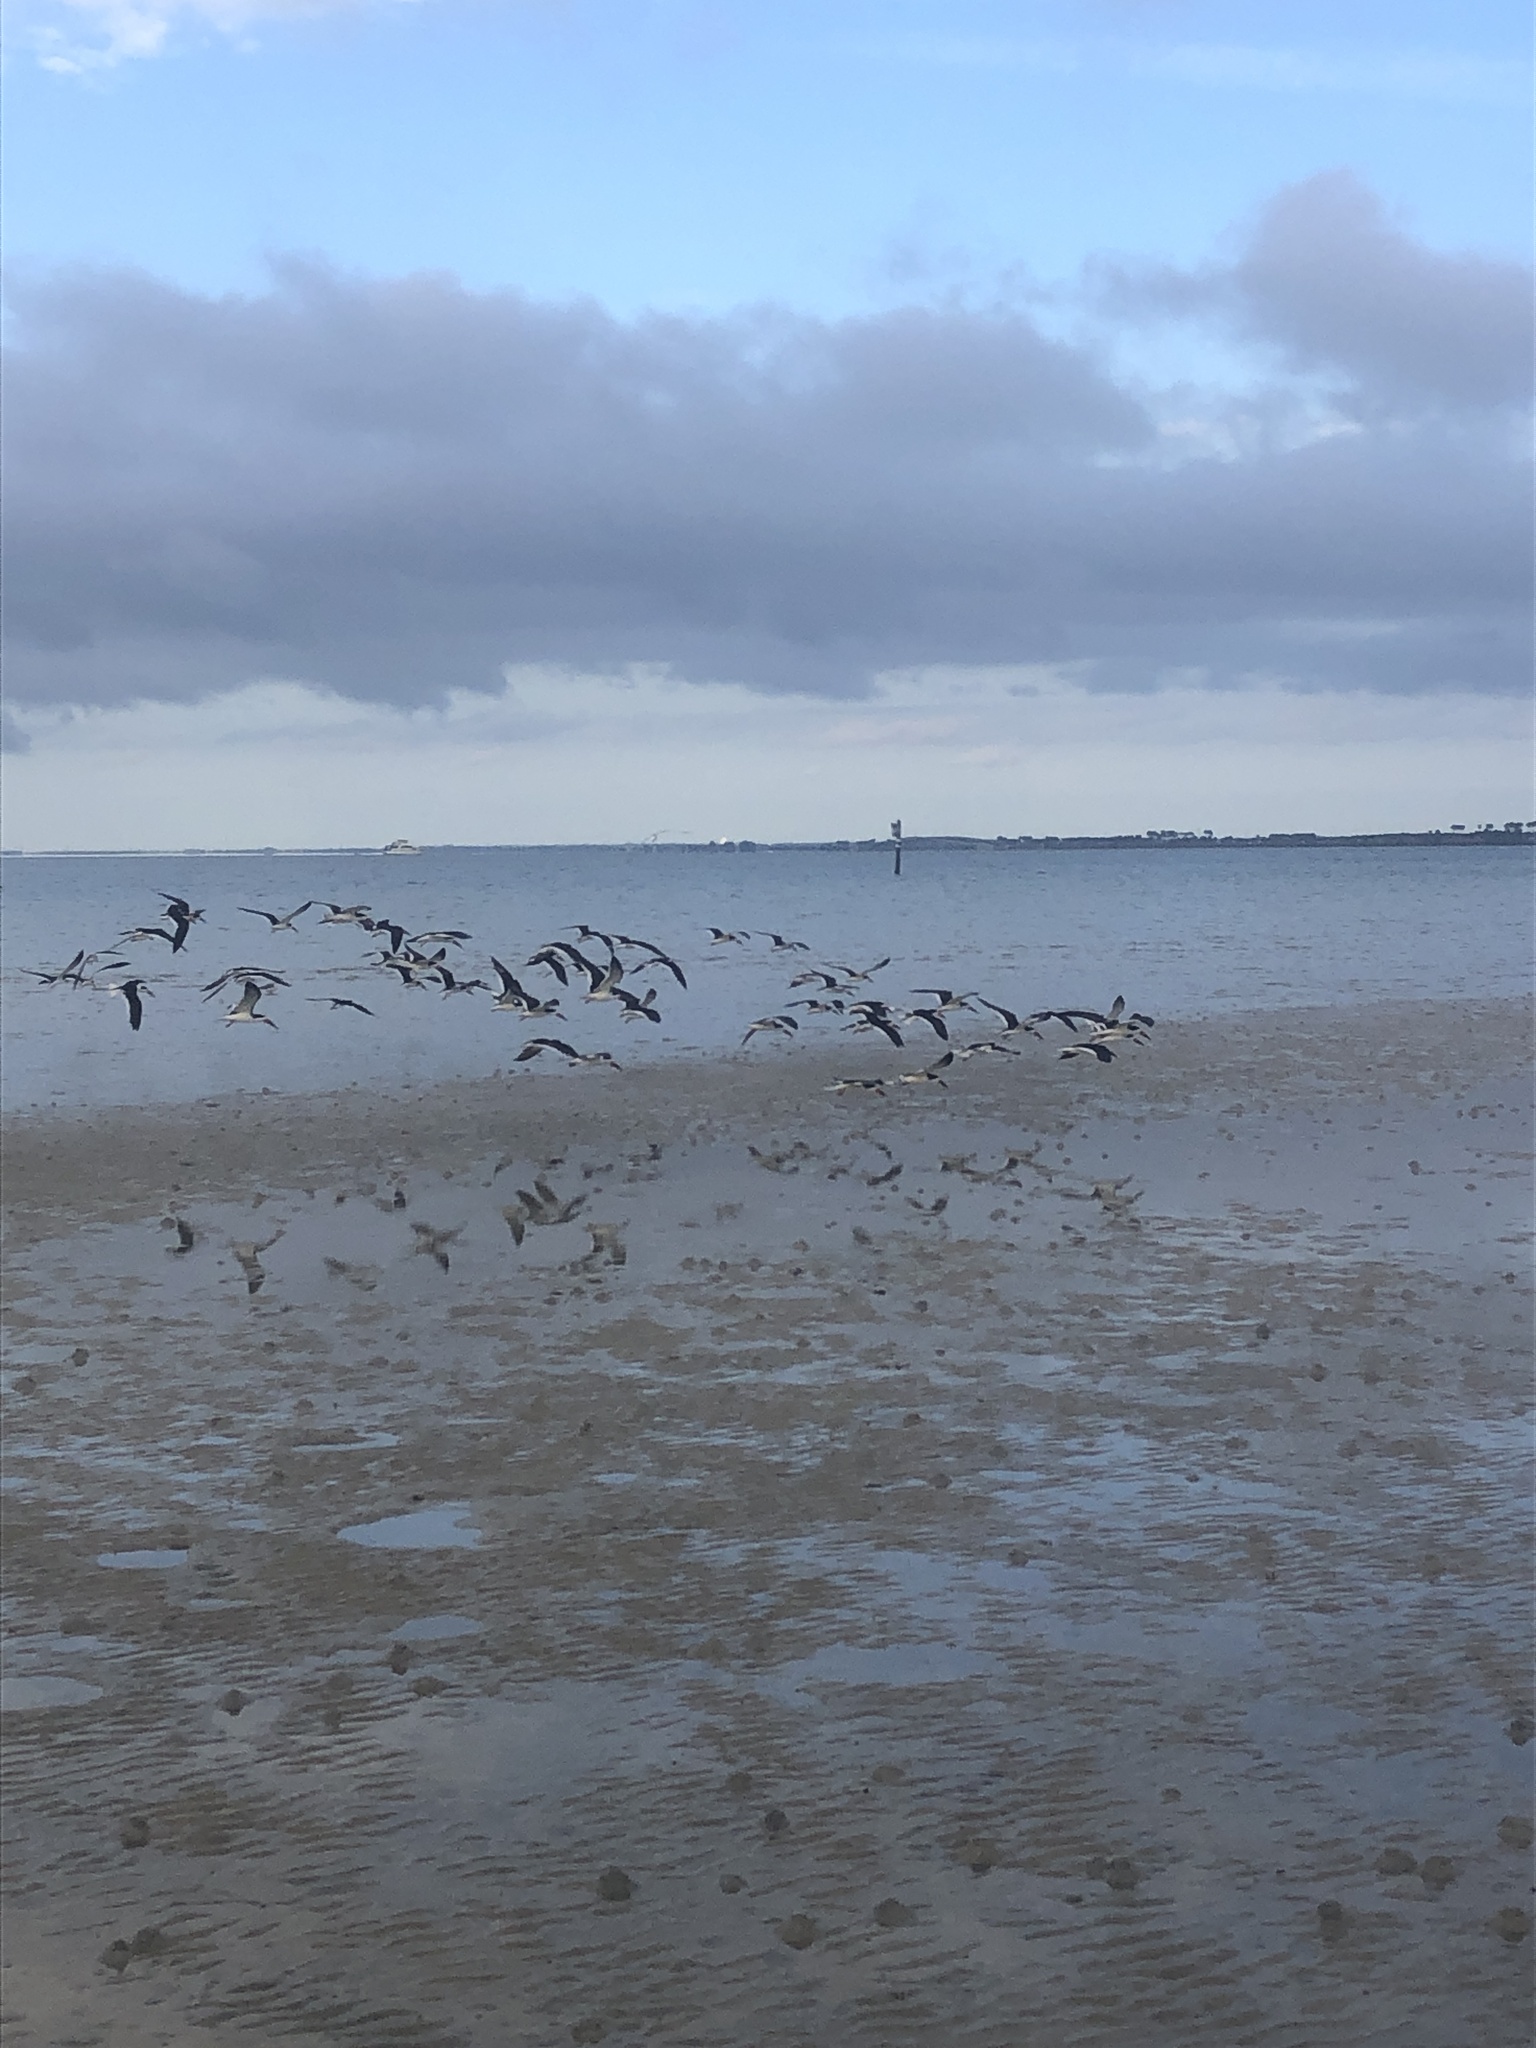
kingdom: Animalia
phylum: Chordata
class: Aves
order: Charadriiformes
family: Laridae
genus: Rynchops
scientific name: Rynchops niger
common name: Black skimmer
